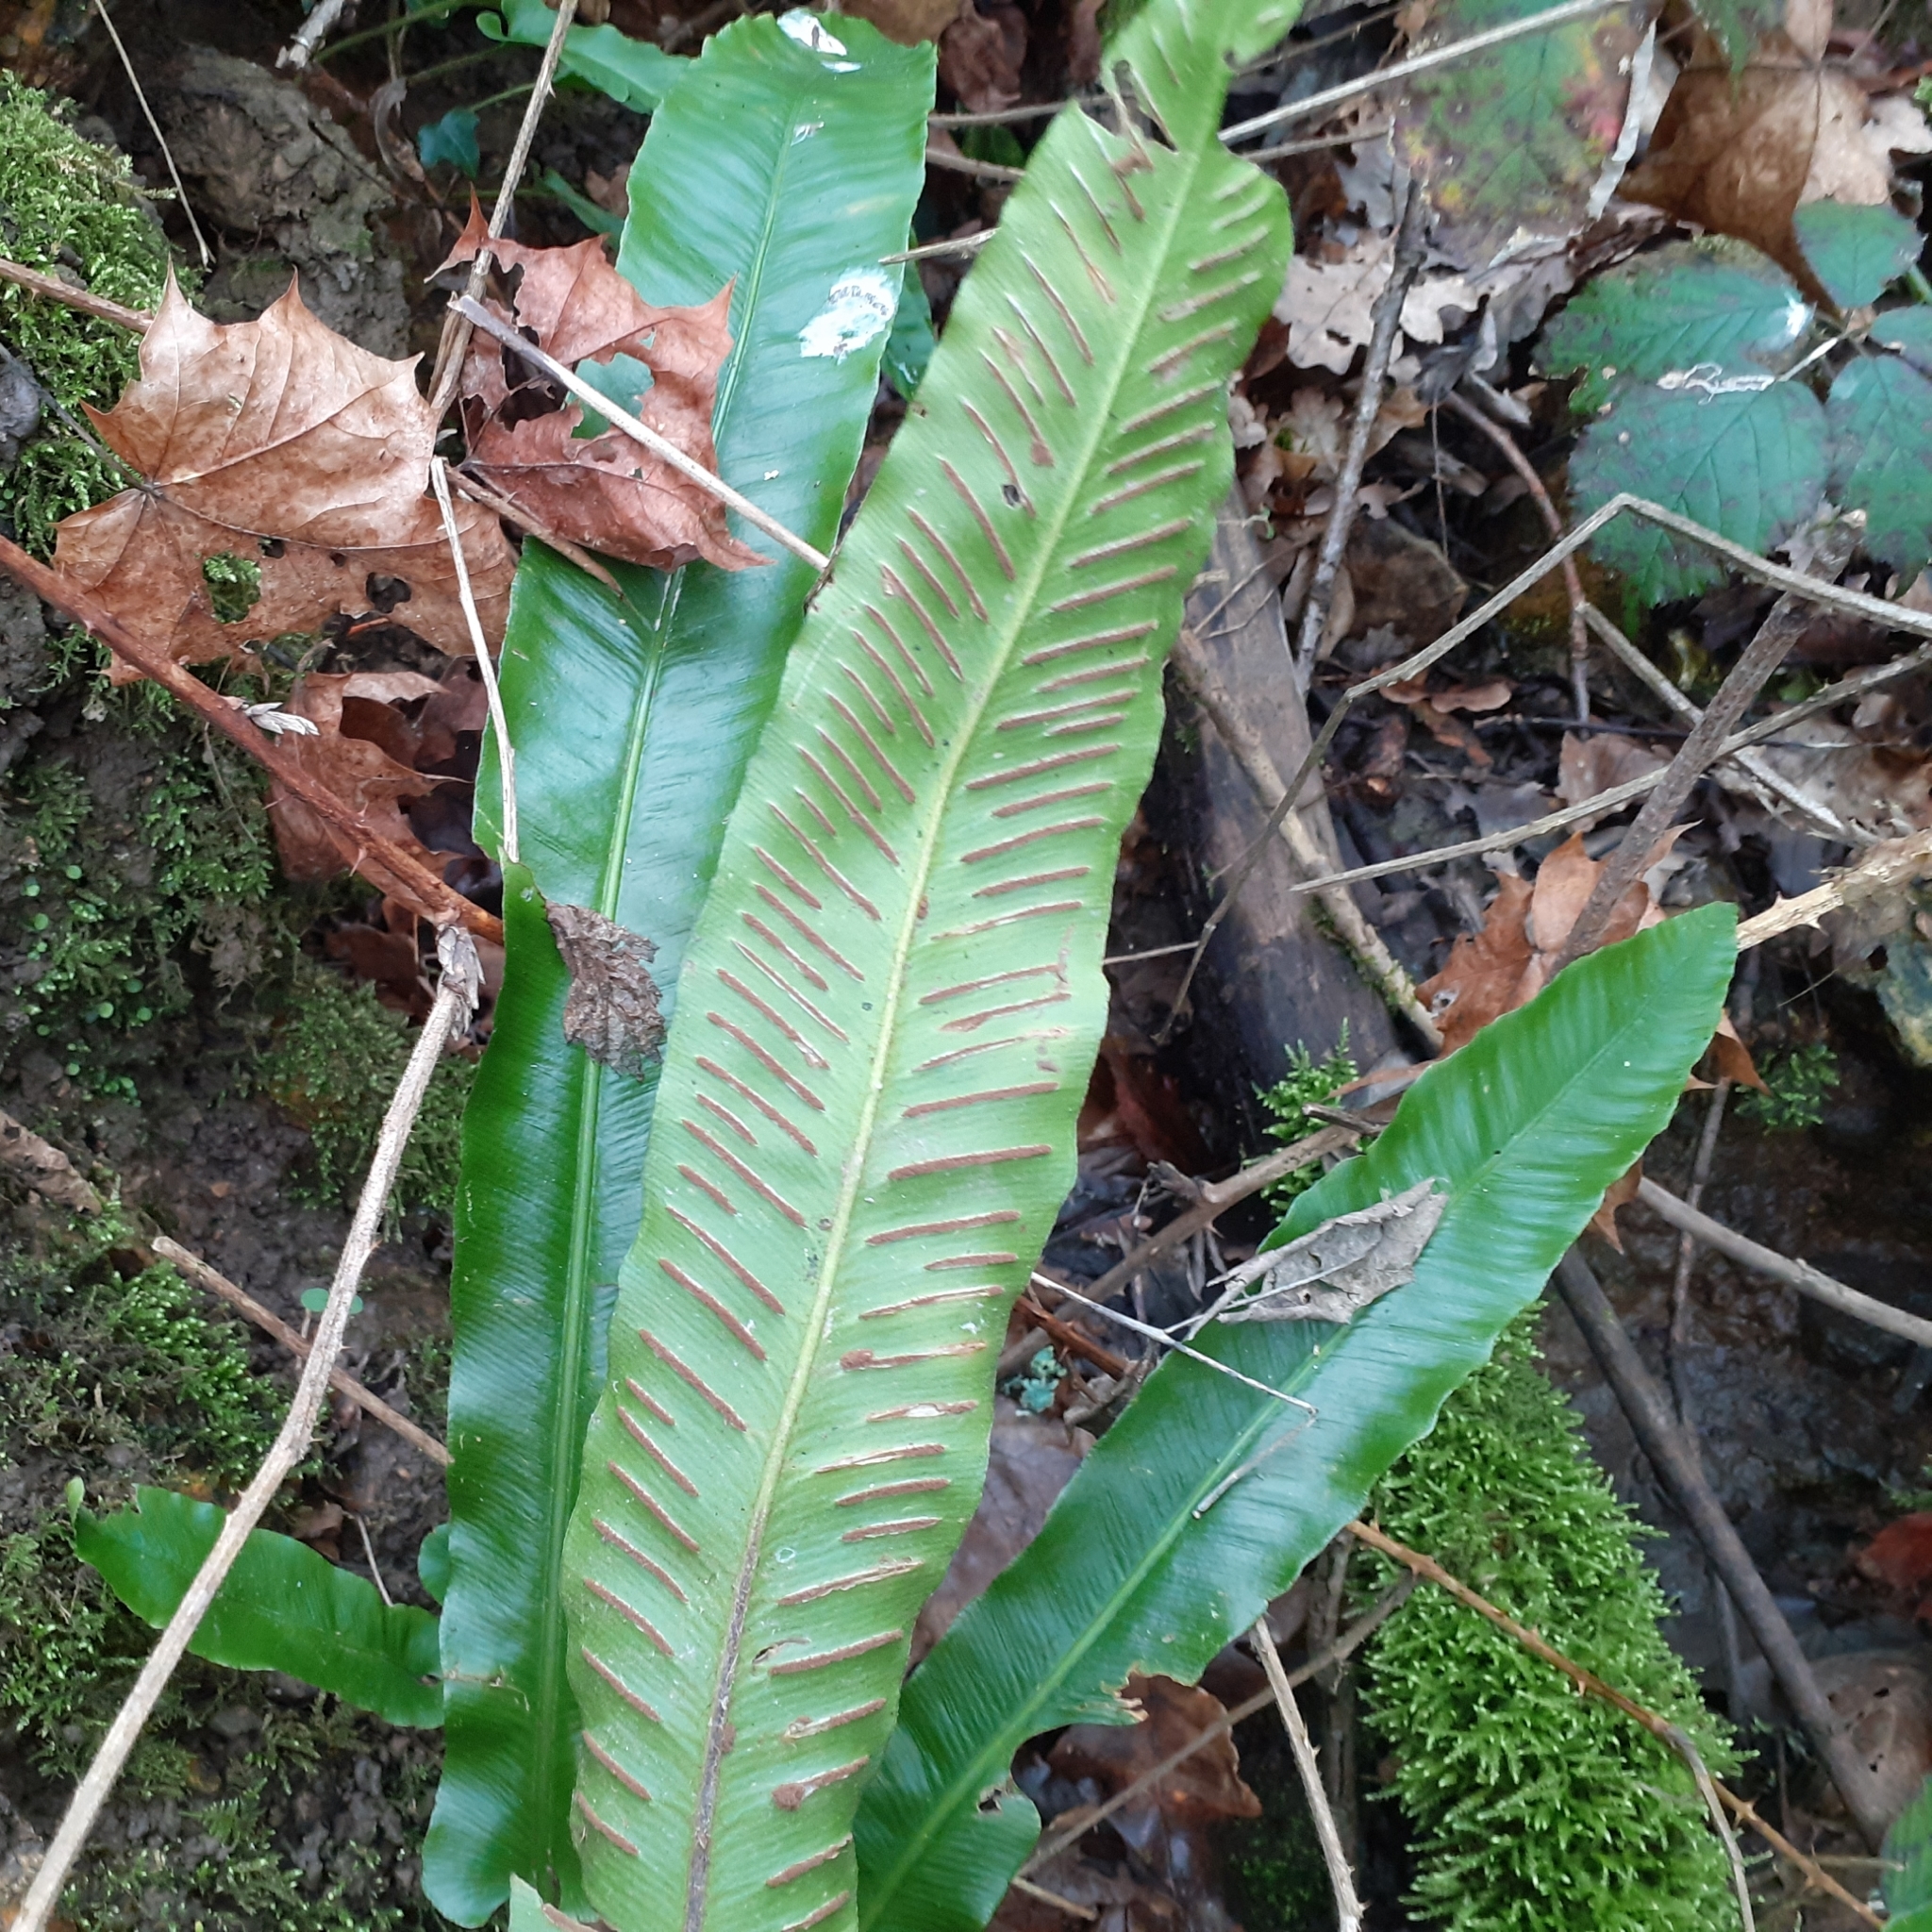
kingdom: Plantae
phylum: Tracheophyta
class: Polypodiopsida
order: Polypodiales
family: Aspleniaceae
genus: Asplenium
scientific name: Asplenium scolopendrium
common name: Hart's-tongue fern
